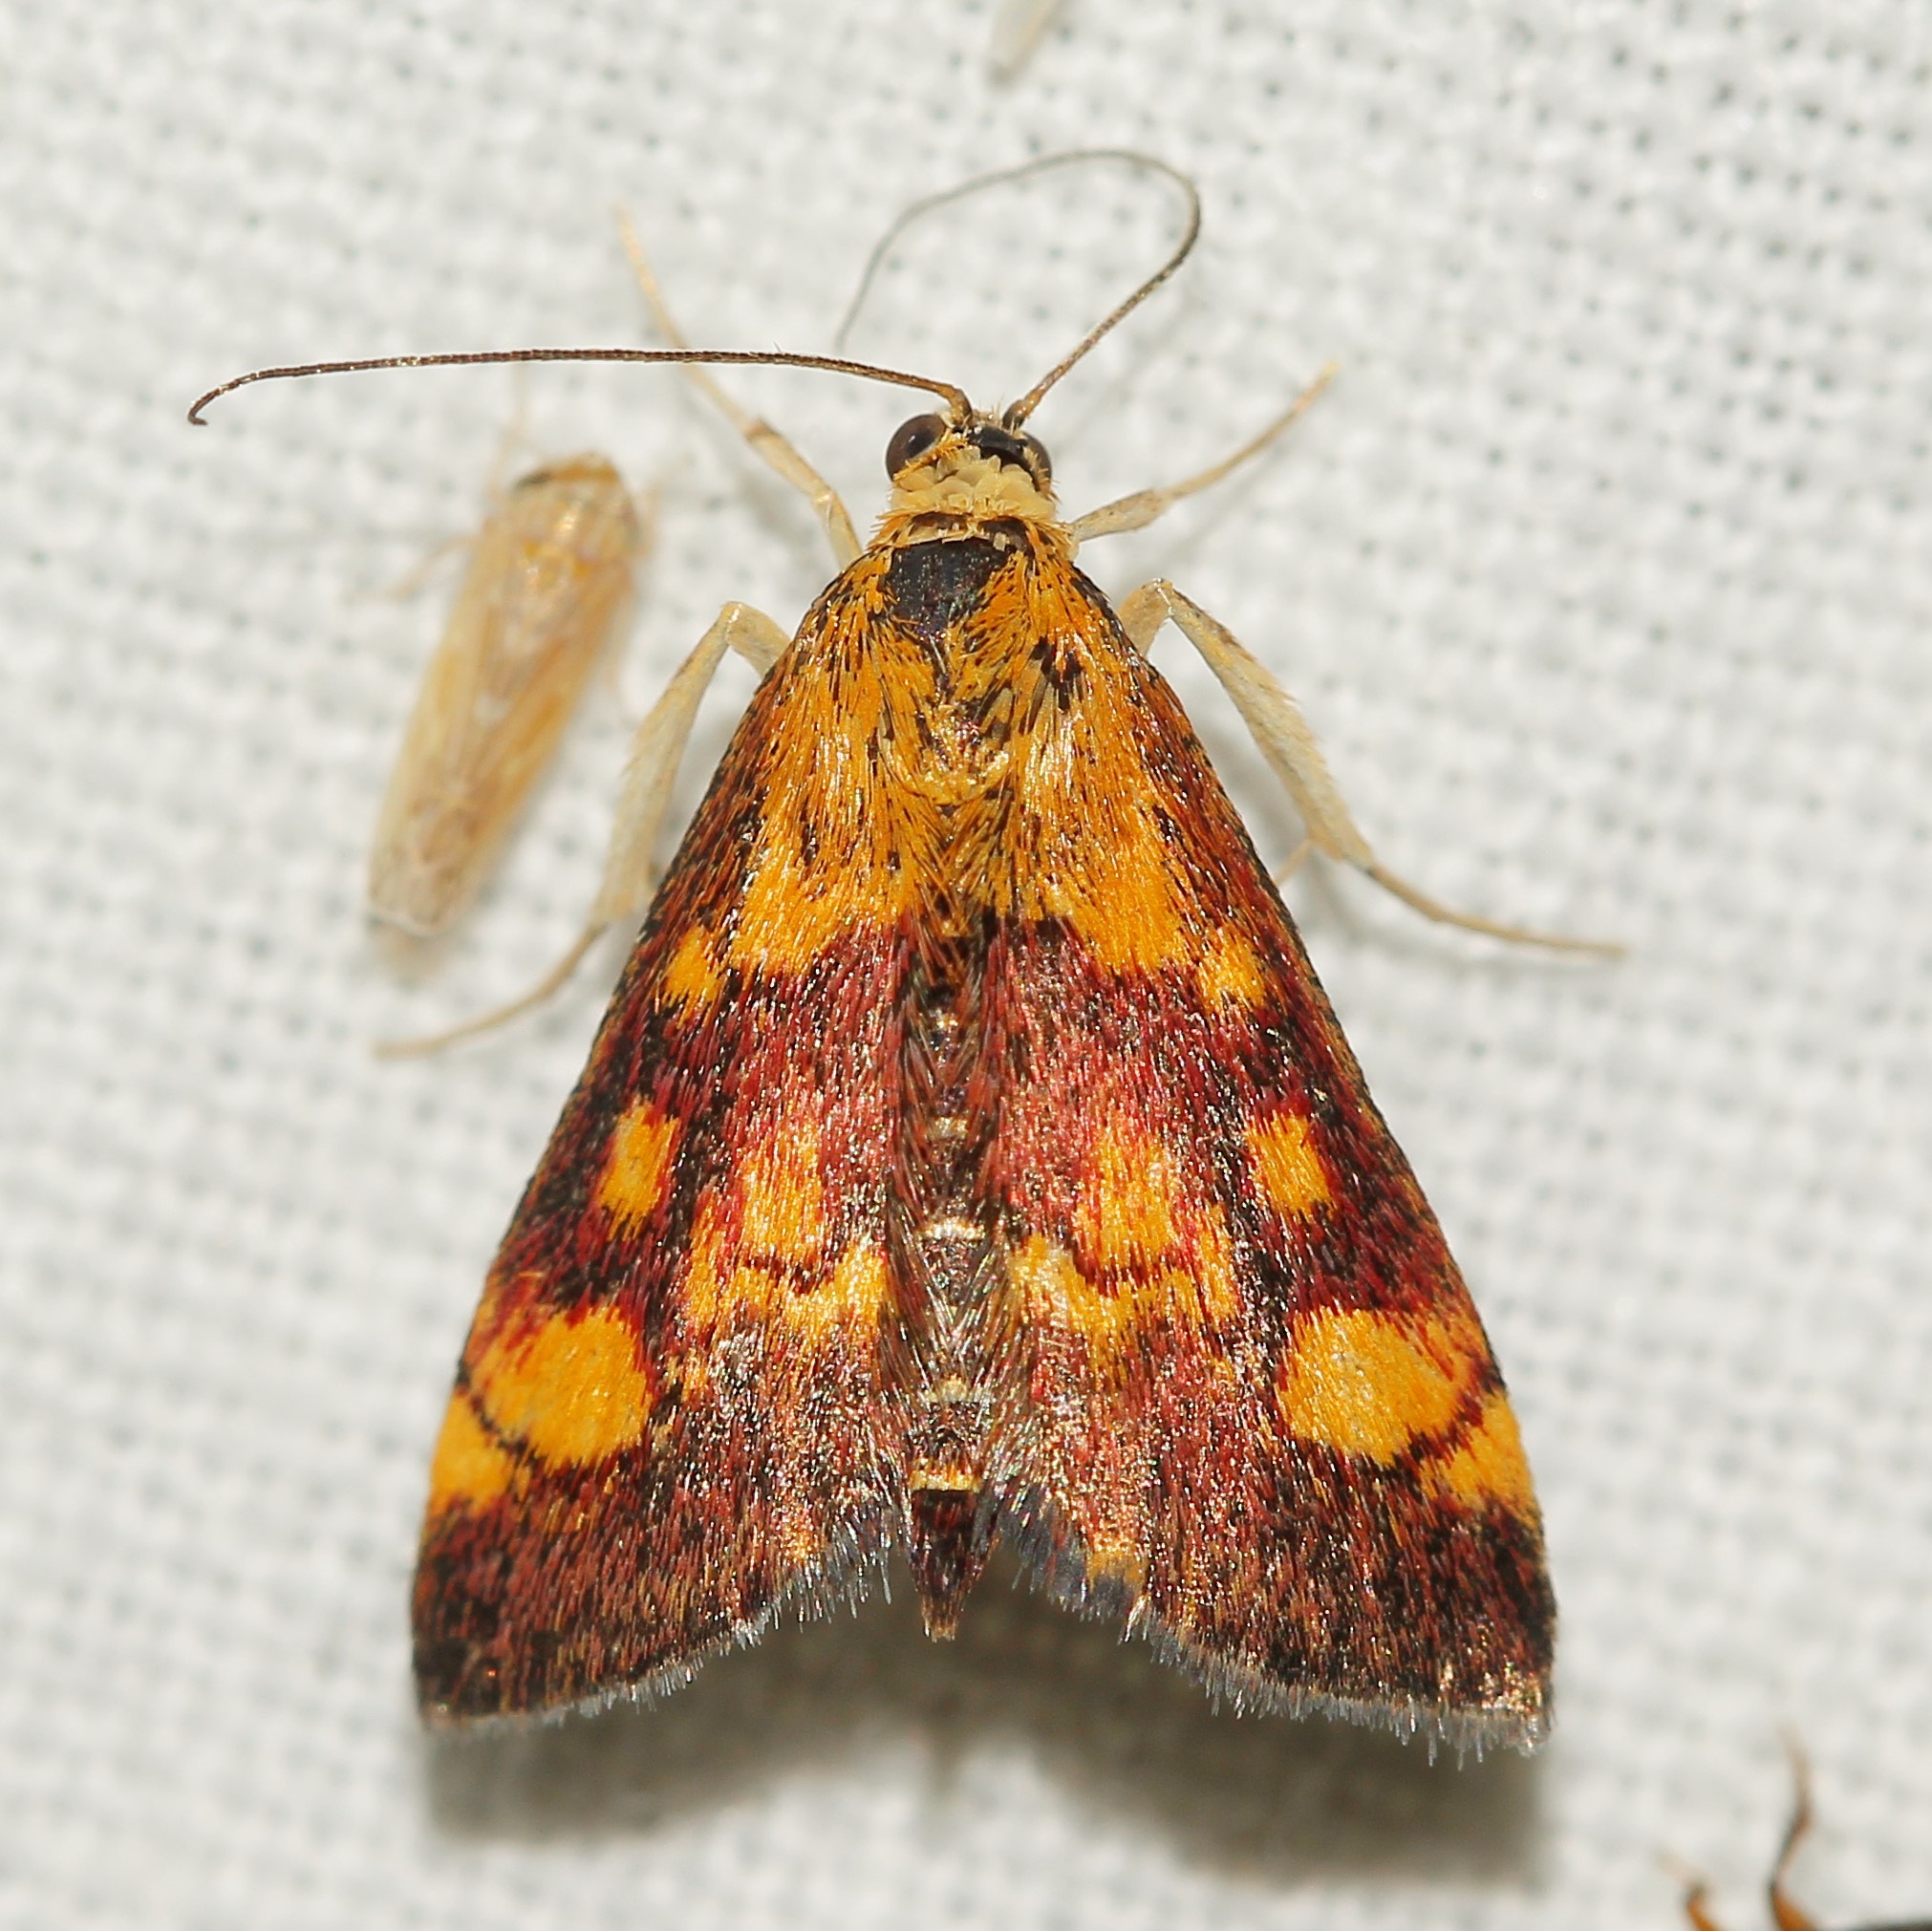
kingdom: Animalia
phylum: Arthropoda
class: Insecta
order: Lepidoptera
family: Crambidae
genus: Pyrausta
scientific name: Pyrausta aurata
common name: Small purple & gold
